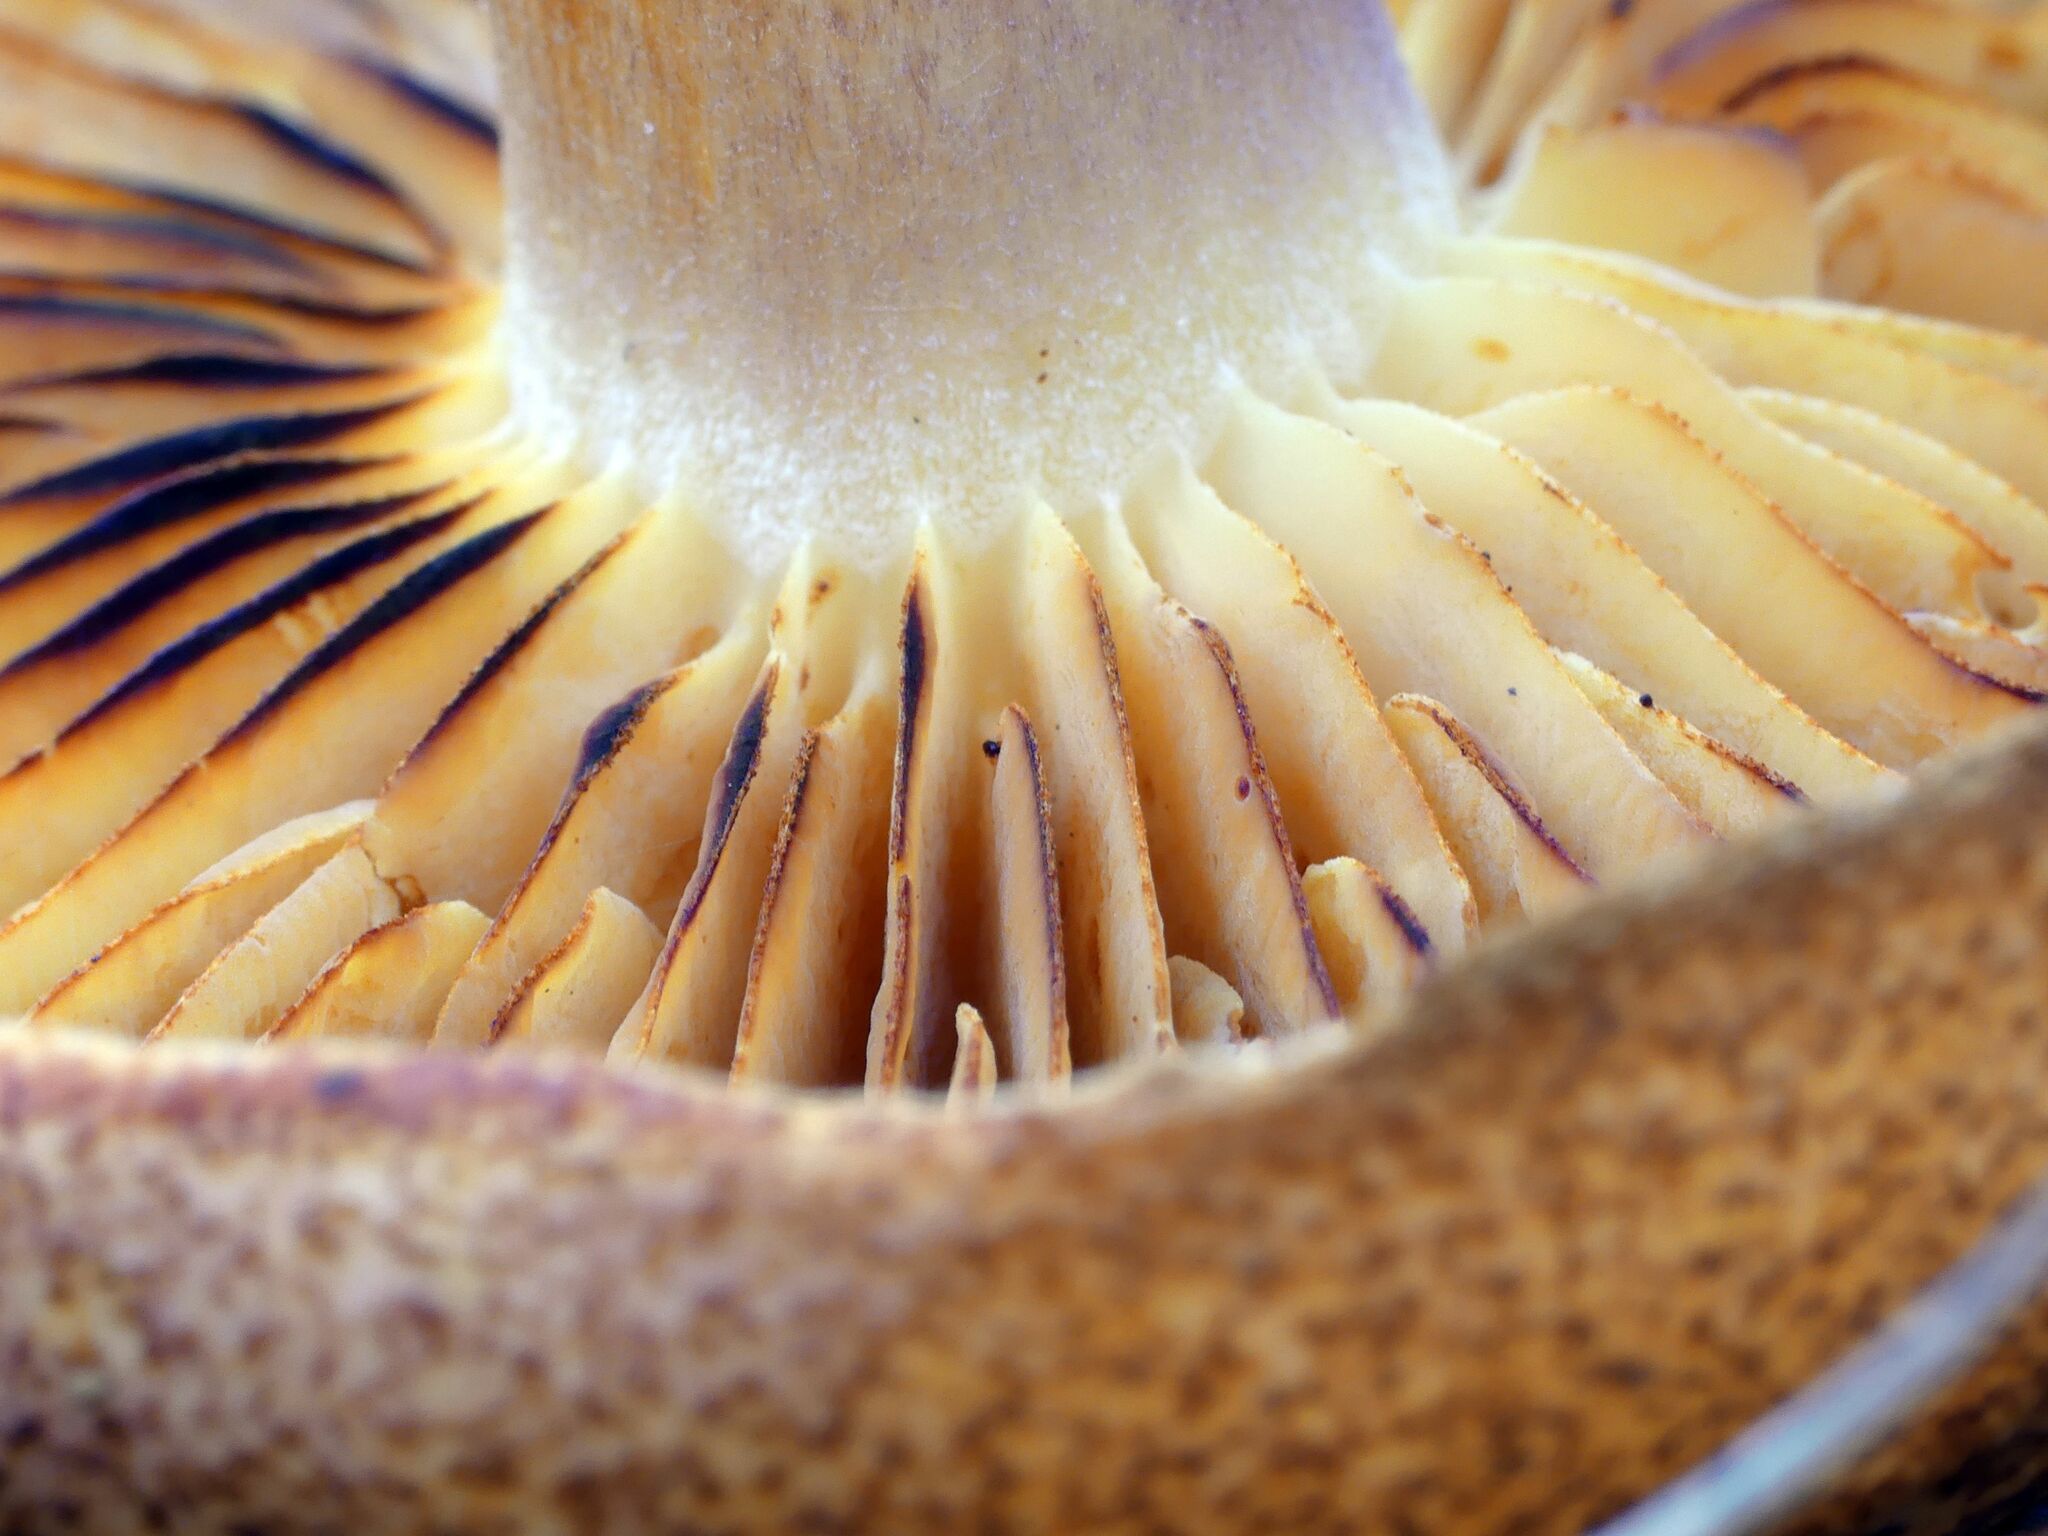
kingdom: Fungi
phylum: Basidiomycota
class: Agaricomycetes
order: Agaricales
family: Tricholomataceae
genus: Tricholomopsis
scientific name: Tricholomopsis rutilans
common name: Plums and custard
